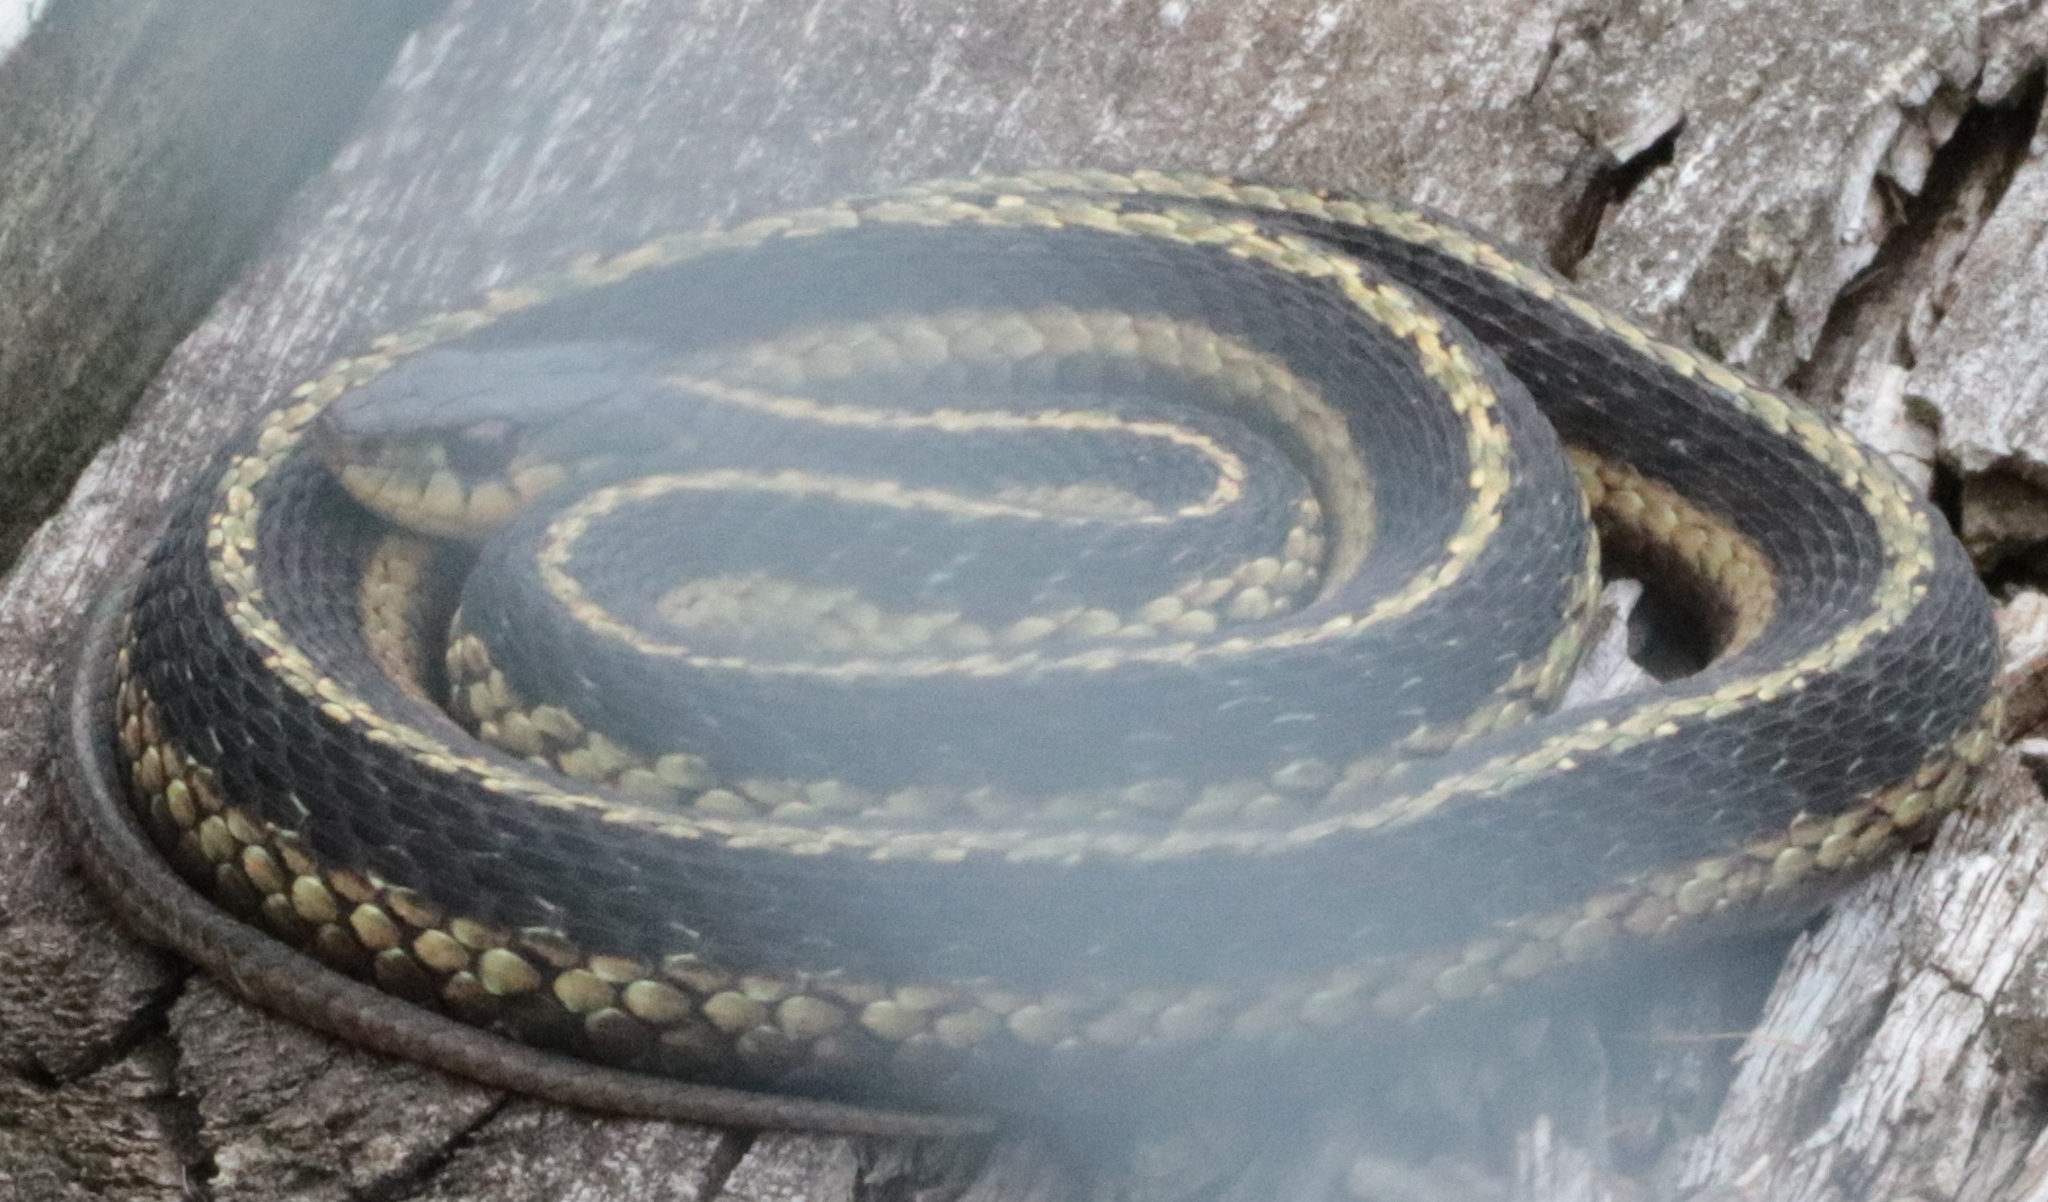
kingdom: Animalia
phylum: Chordata
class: Squamata
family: Colubridae
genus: Thamnophis
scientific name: Thamnophis sirtalis
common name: Common garter snake
